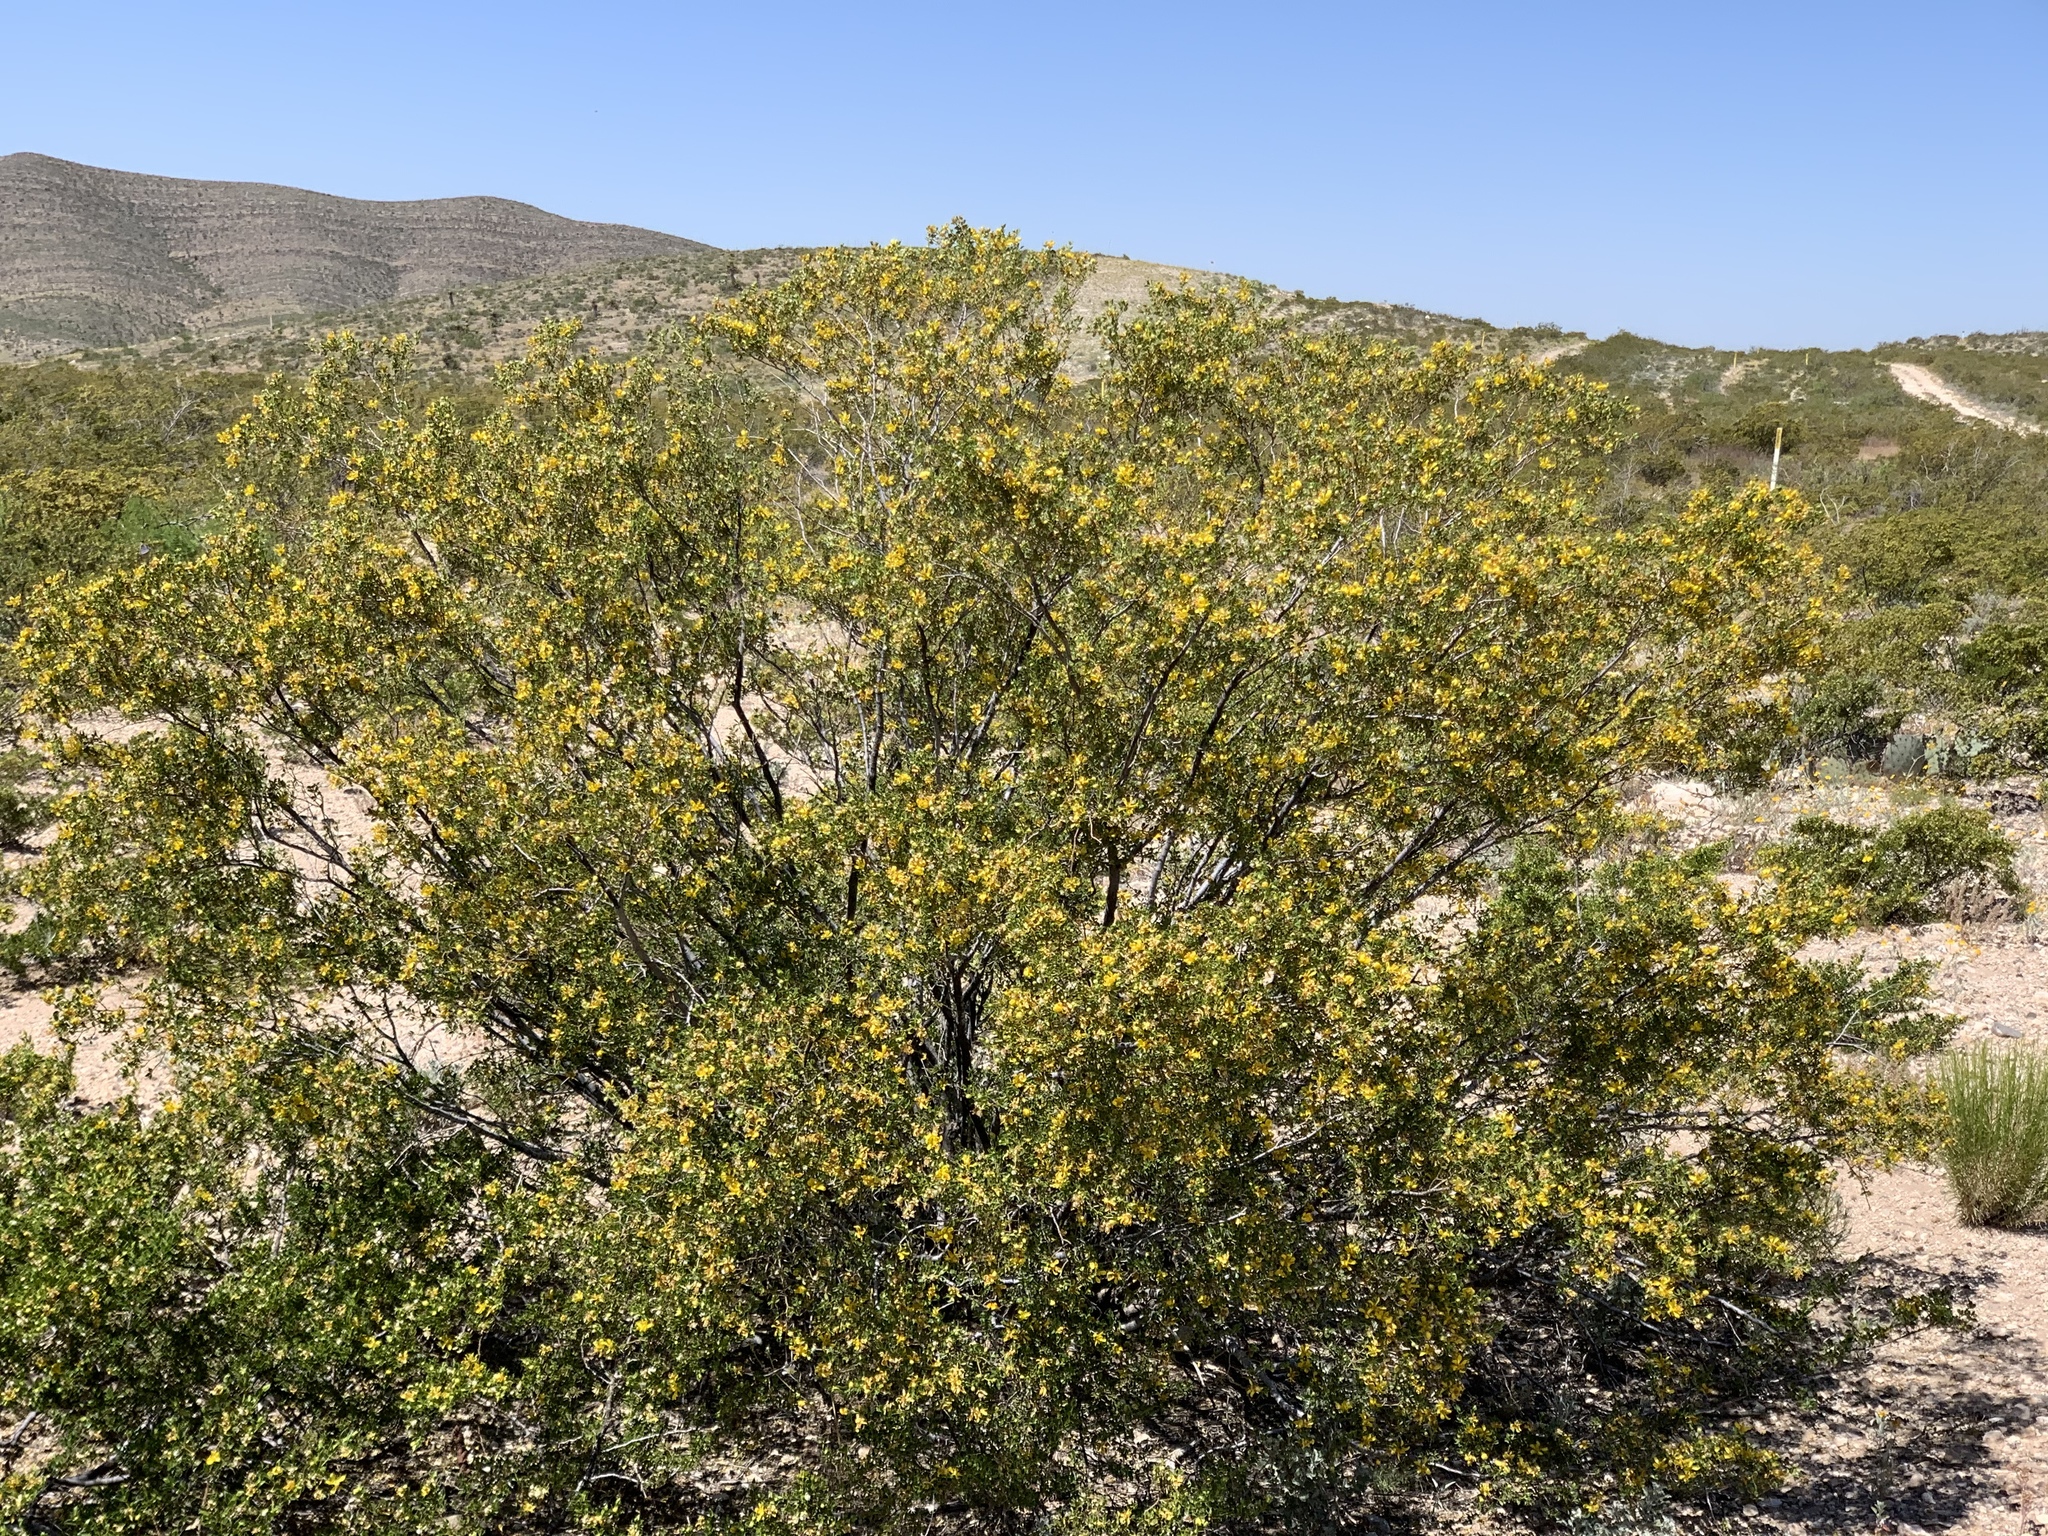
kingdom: Plantae
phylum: Tracheophyta
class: Magnoliopsida
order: Zygophyllales
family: Zygophyllaceae
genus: Larrea
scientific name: Larrea tridentata
